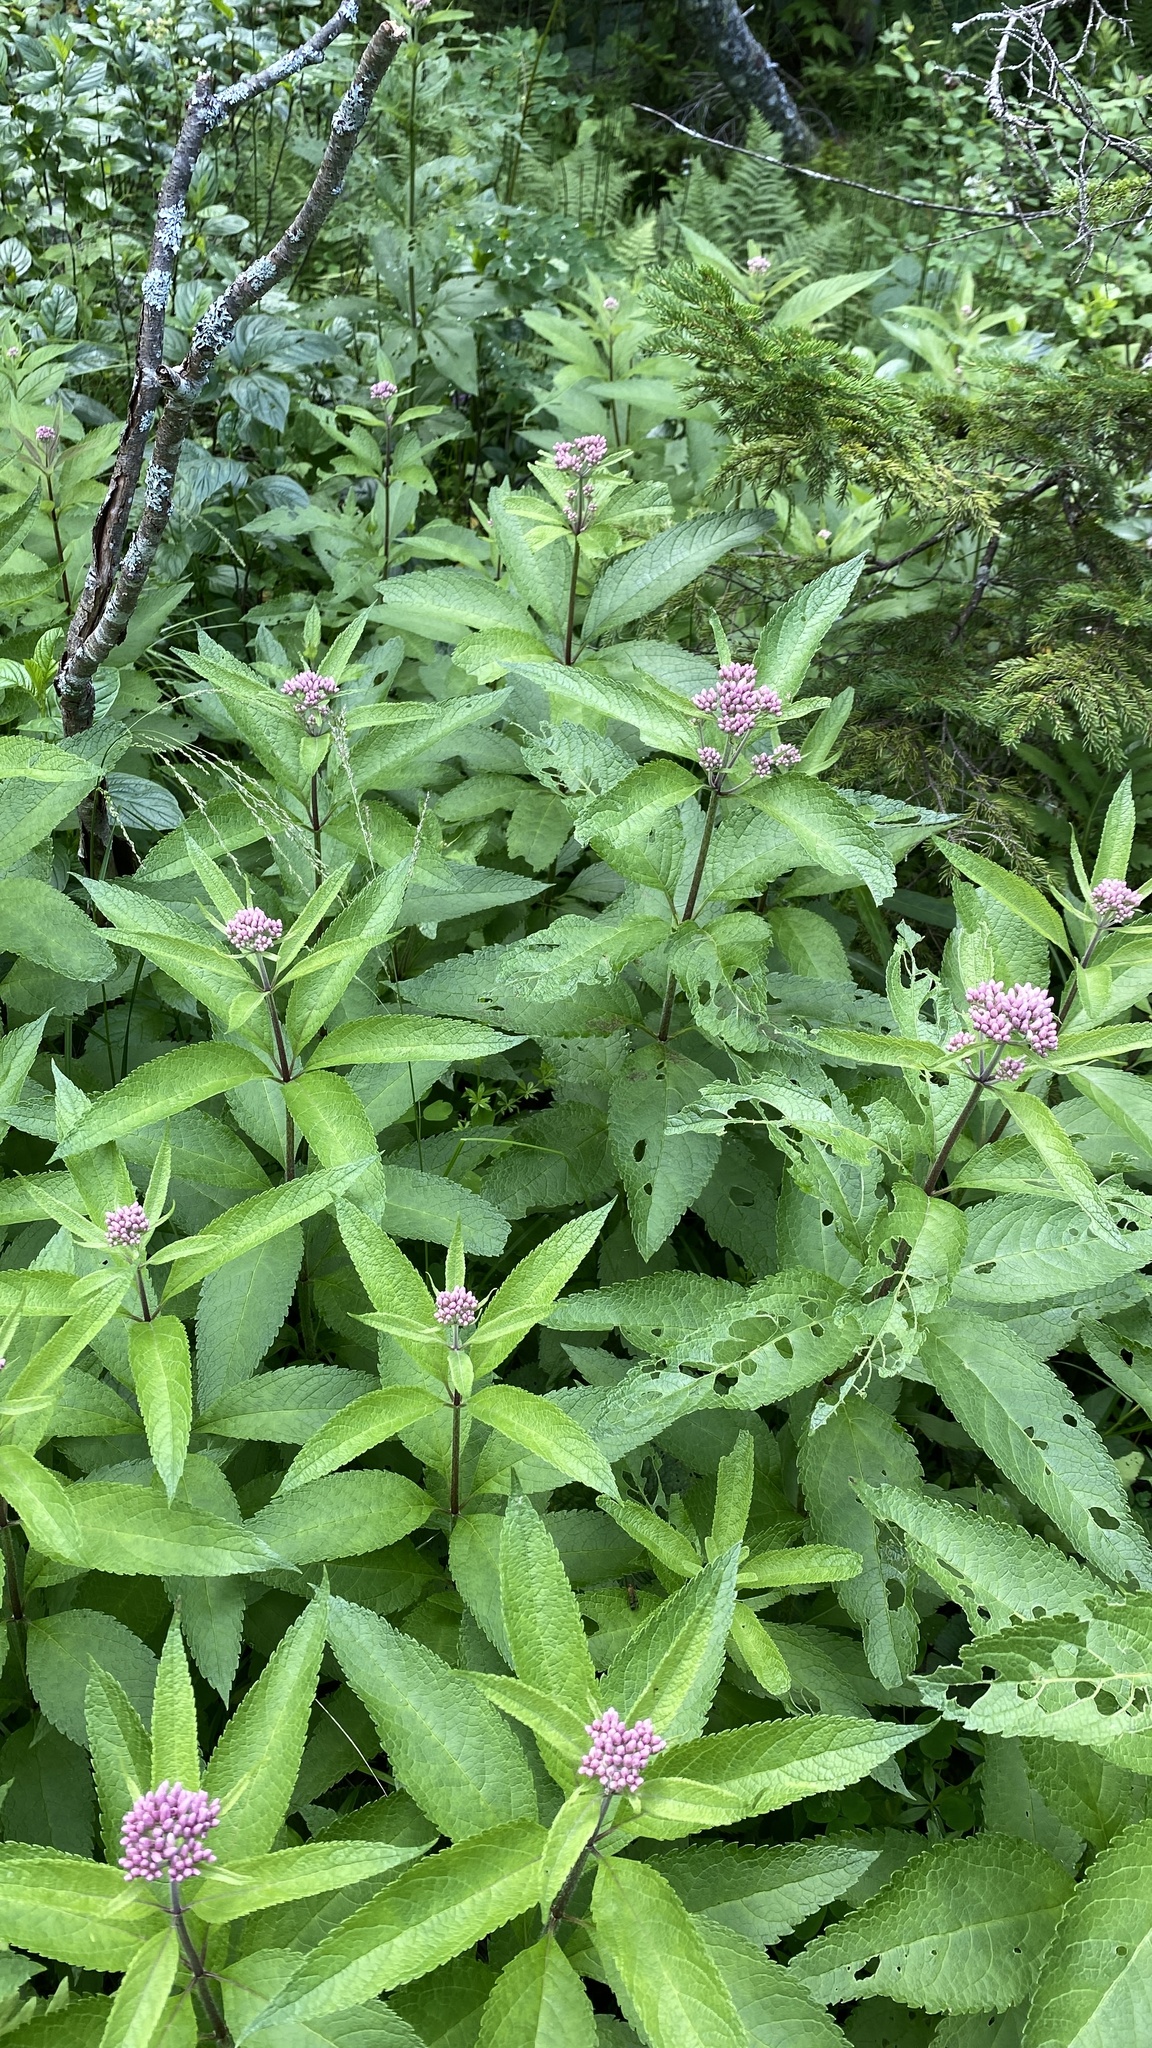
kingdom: Plantae
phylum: Tracheophyta
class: Magnoliopsida
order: Asterales
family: Asteraceae
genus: Eutrochium
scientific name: Eutrochium maculatum
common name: Spotted joe pye weed
